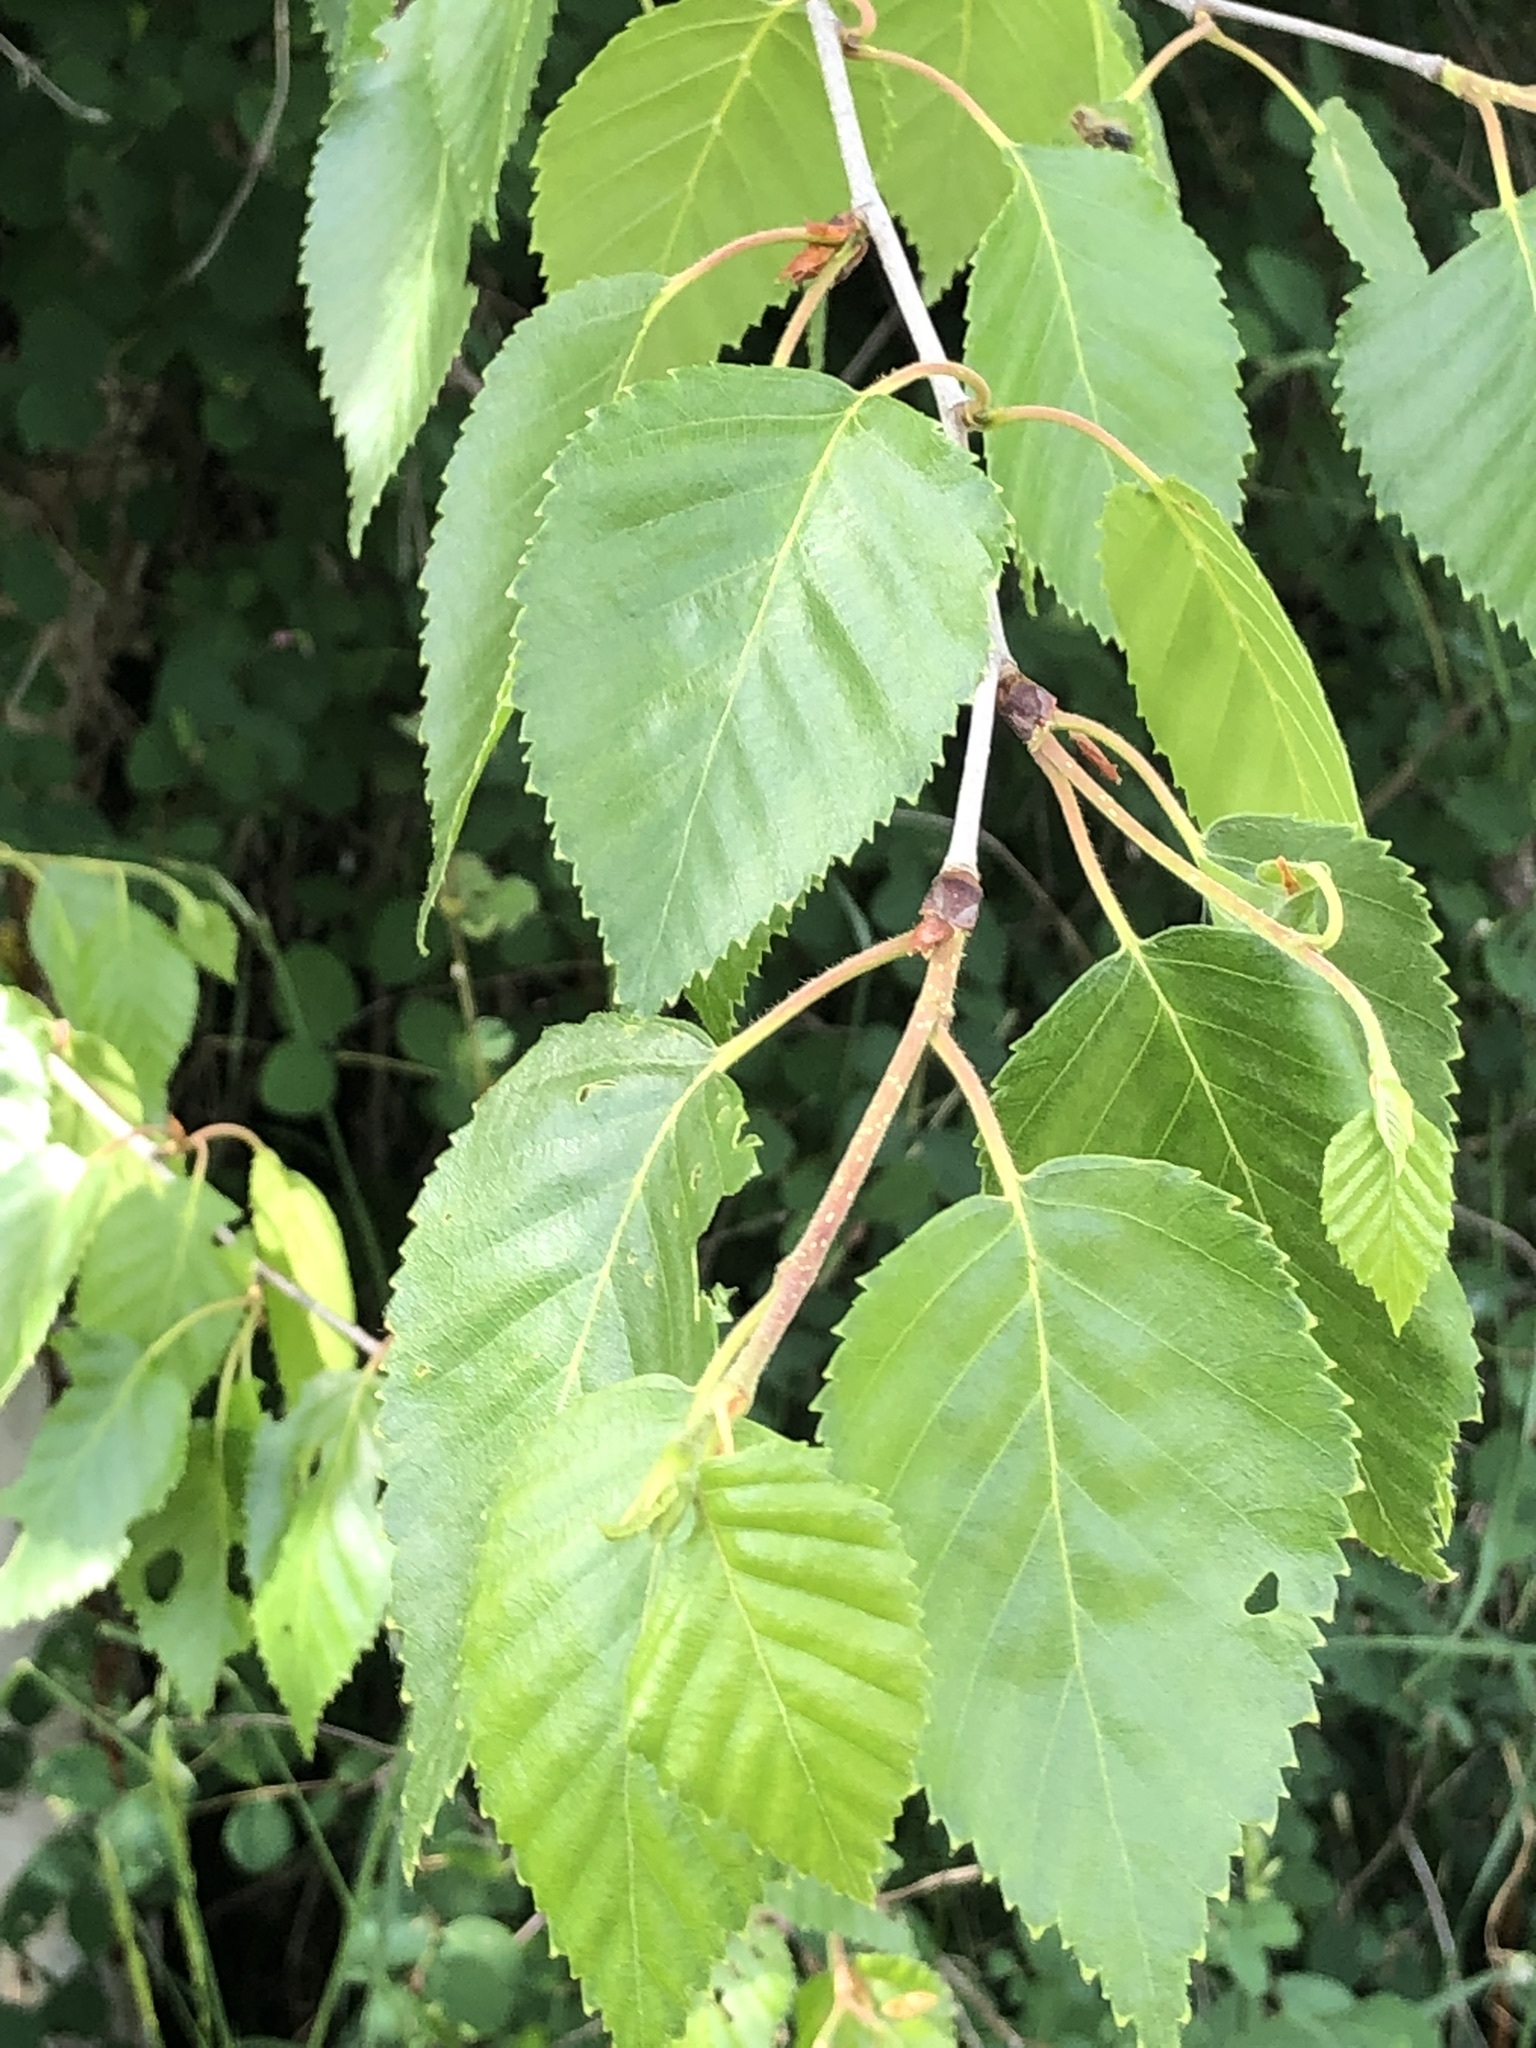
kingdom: Plantae
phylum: Tracheophyta
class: Magnoliopsida
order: Fagales
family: Betulaceae
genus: Betula
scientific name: Betula papyrifera
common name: Paper birch
